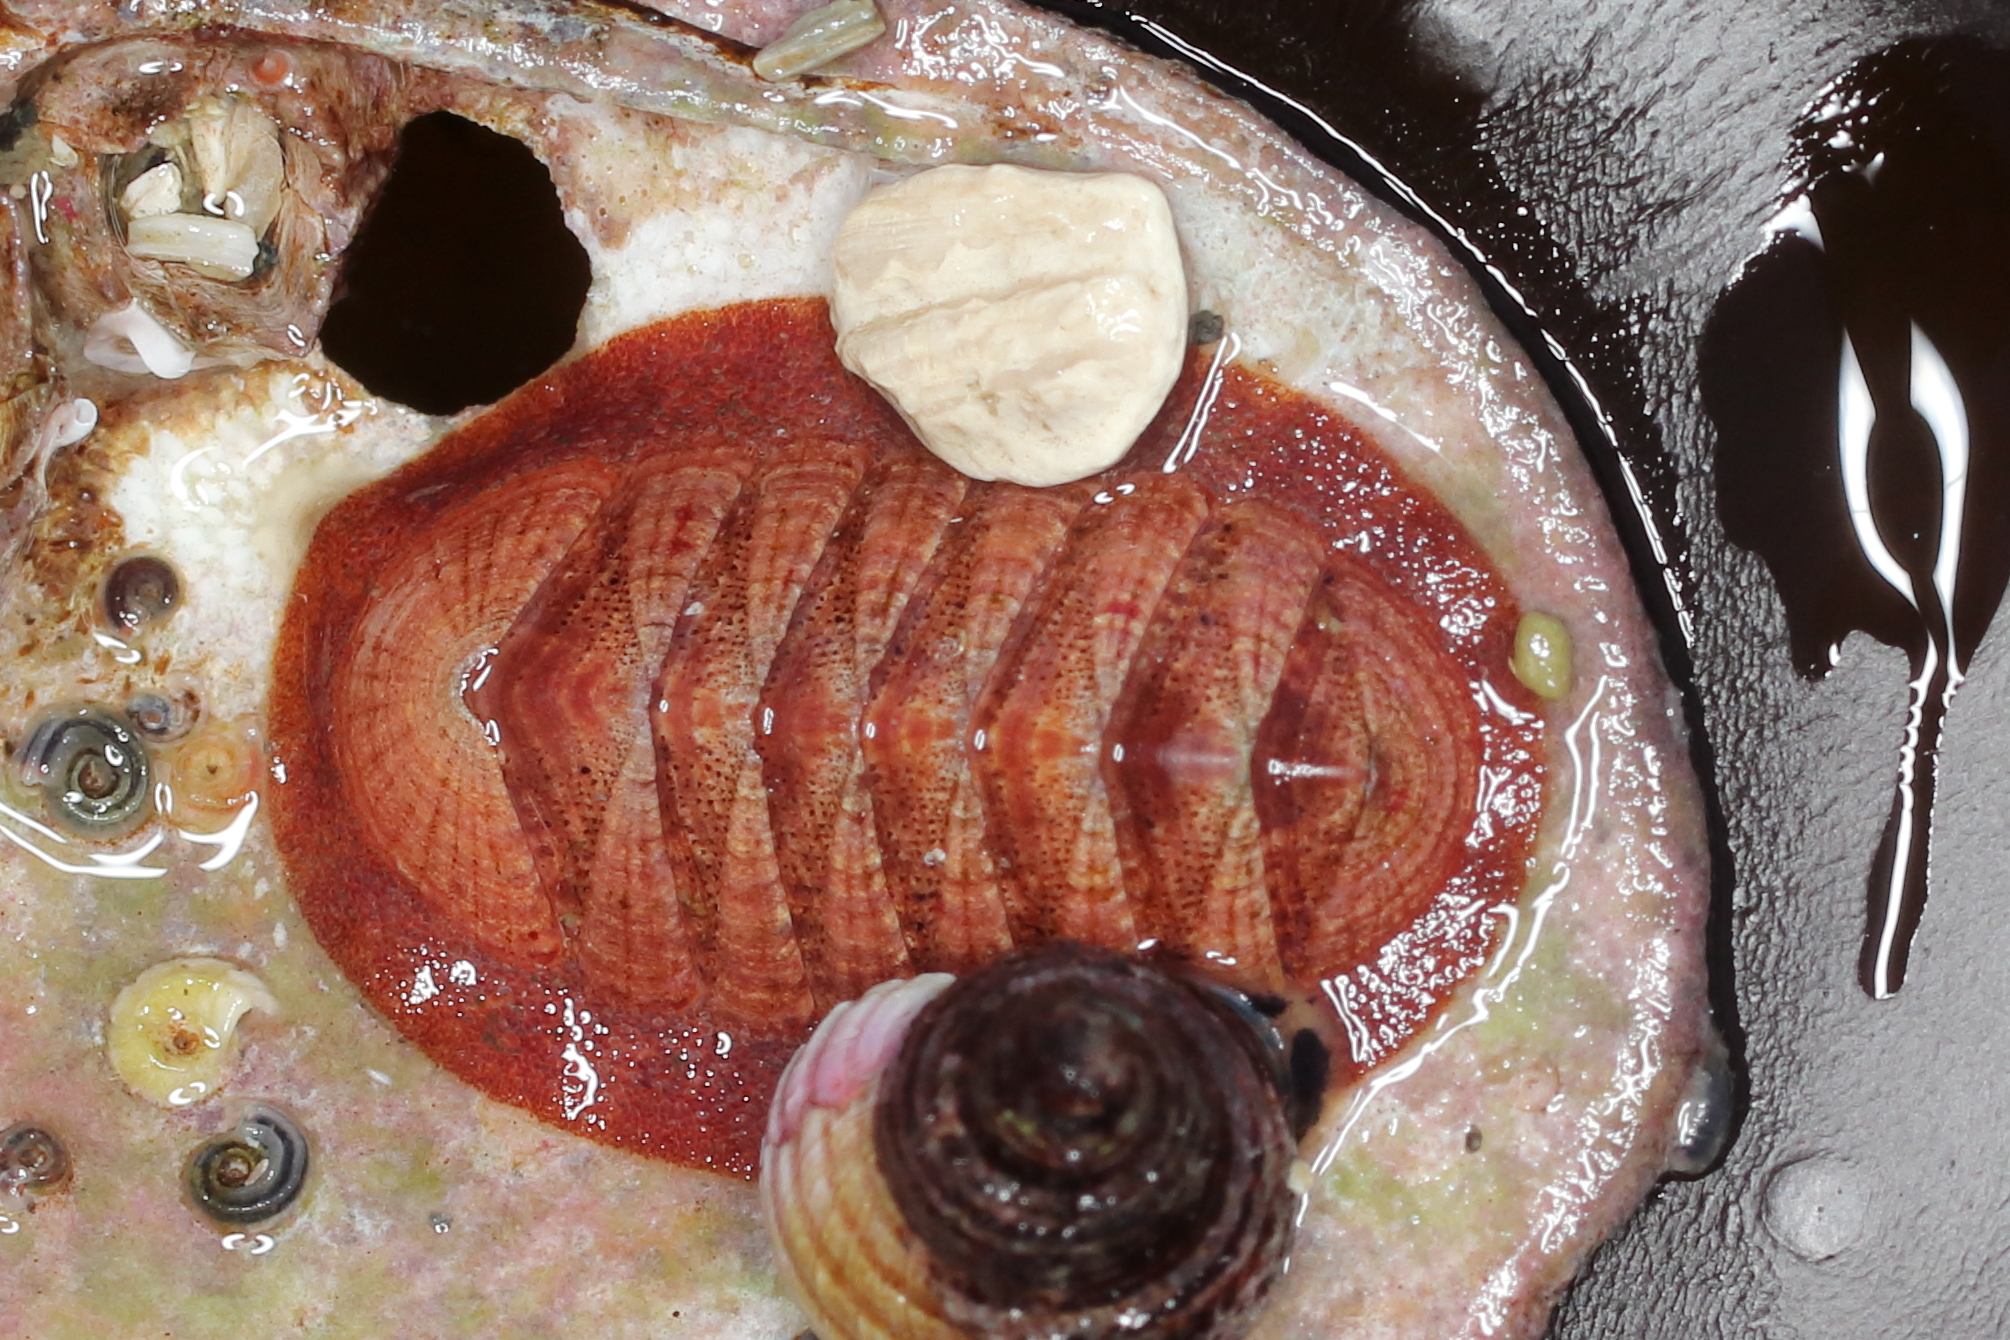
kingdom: Animalia
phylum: Mollusca
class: Polyplacophora
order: Chitonida
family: Ischnochitonidae
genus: Tripoplax
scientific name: Tripoplax trifida
